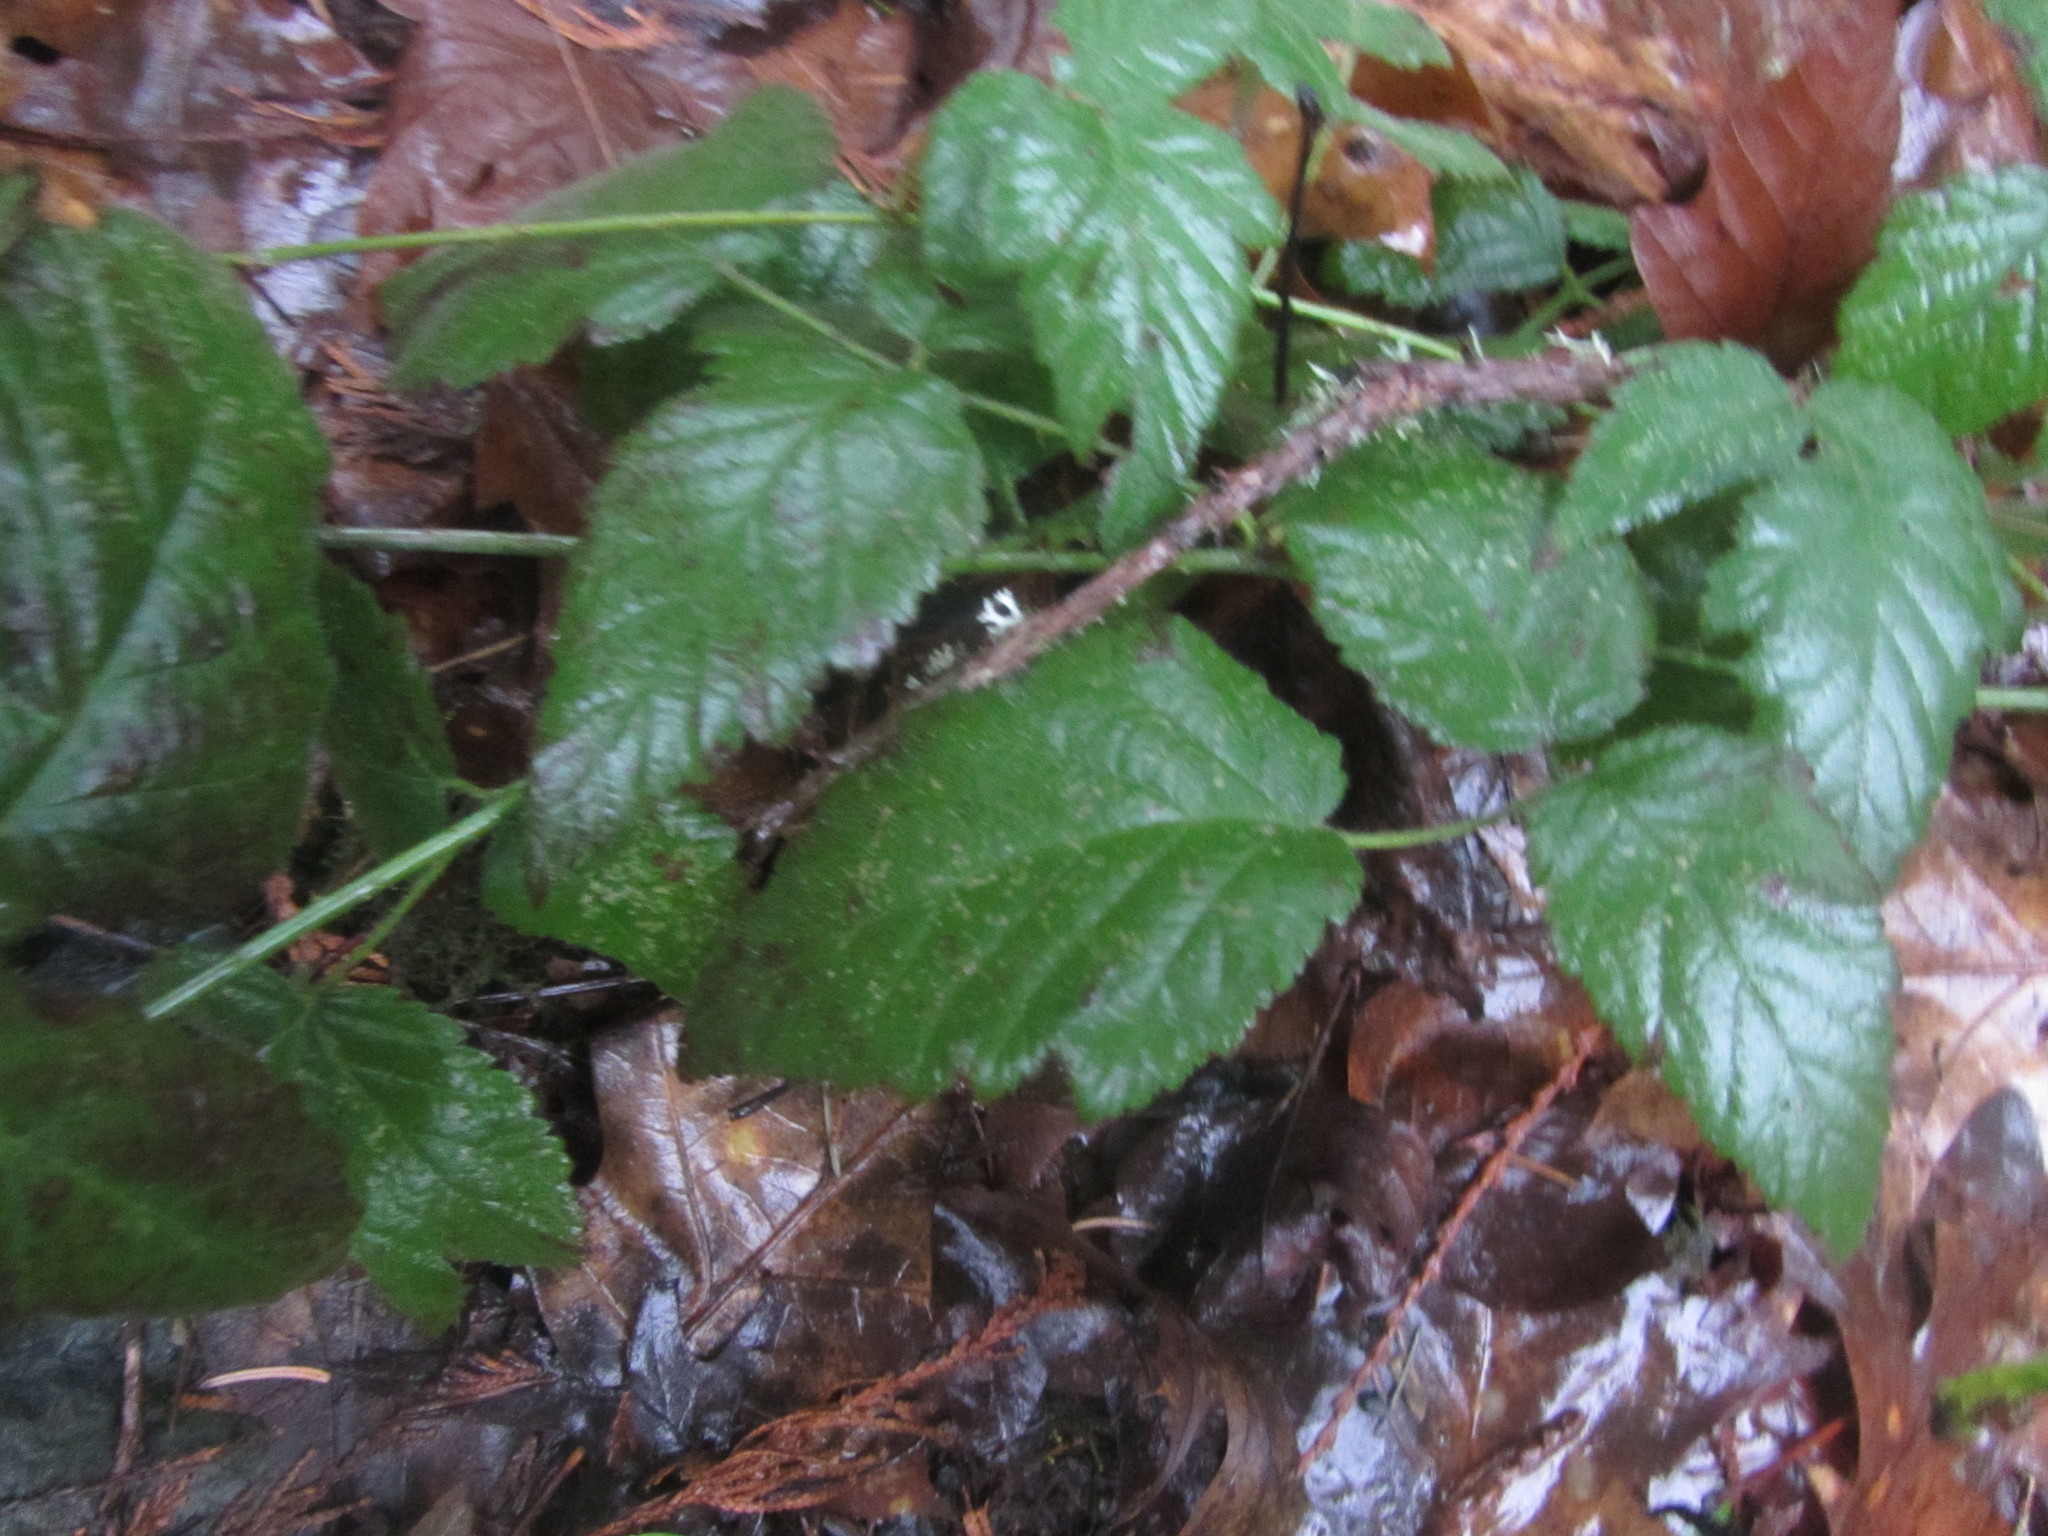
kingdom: Plantae
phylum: Tracheophyta
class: Magnoliopsida
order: Rosales
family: Rosaceae
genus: Rubus
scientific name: Rubus ursinus
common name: Pacific blackberry
